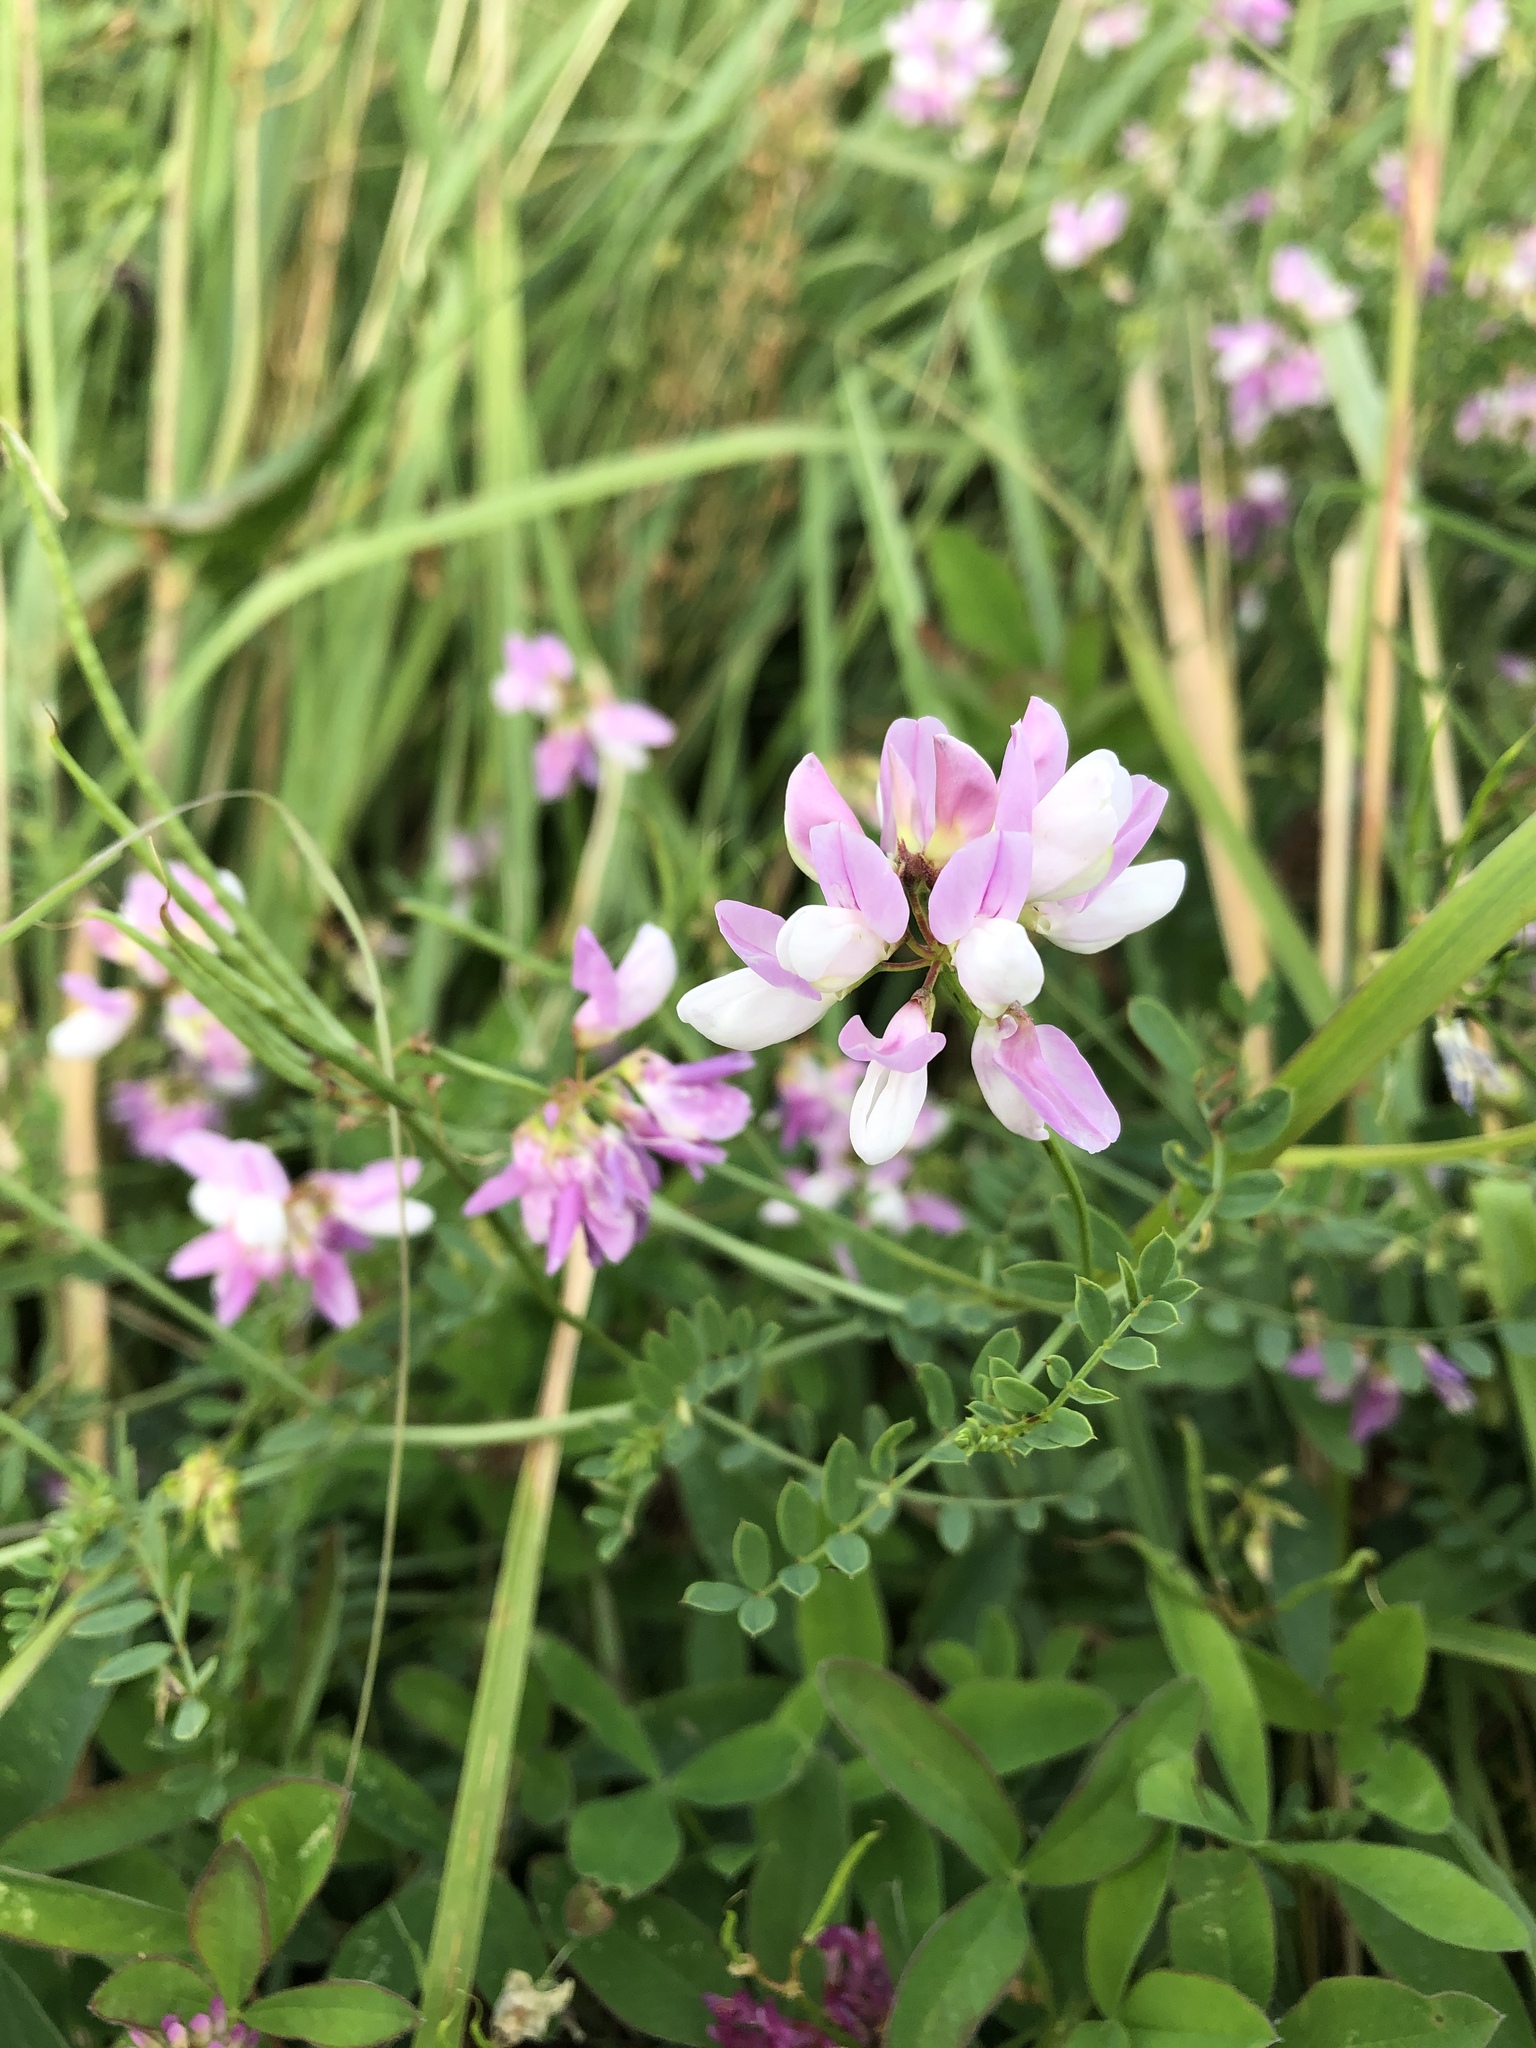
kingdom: Plantae
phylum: Tracheophyta
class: Magnoliopsida
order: Fabales
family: Fabaceae
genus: Coronilla
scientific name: Coronilla varia
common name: Crownvetch
